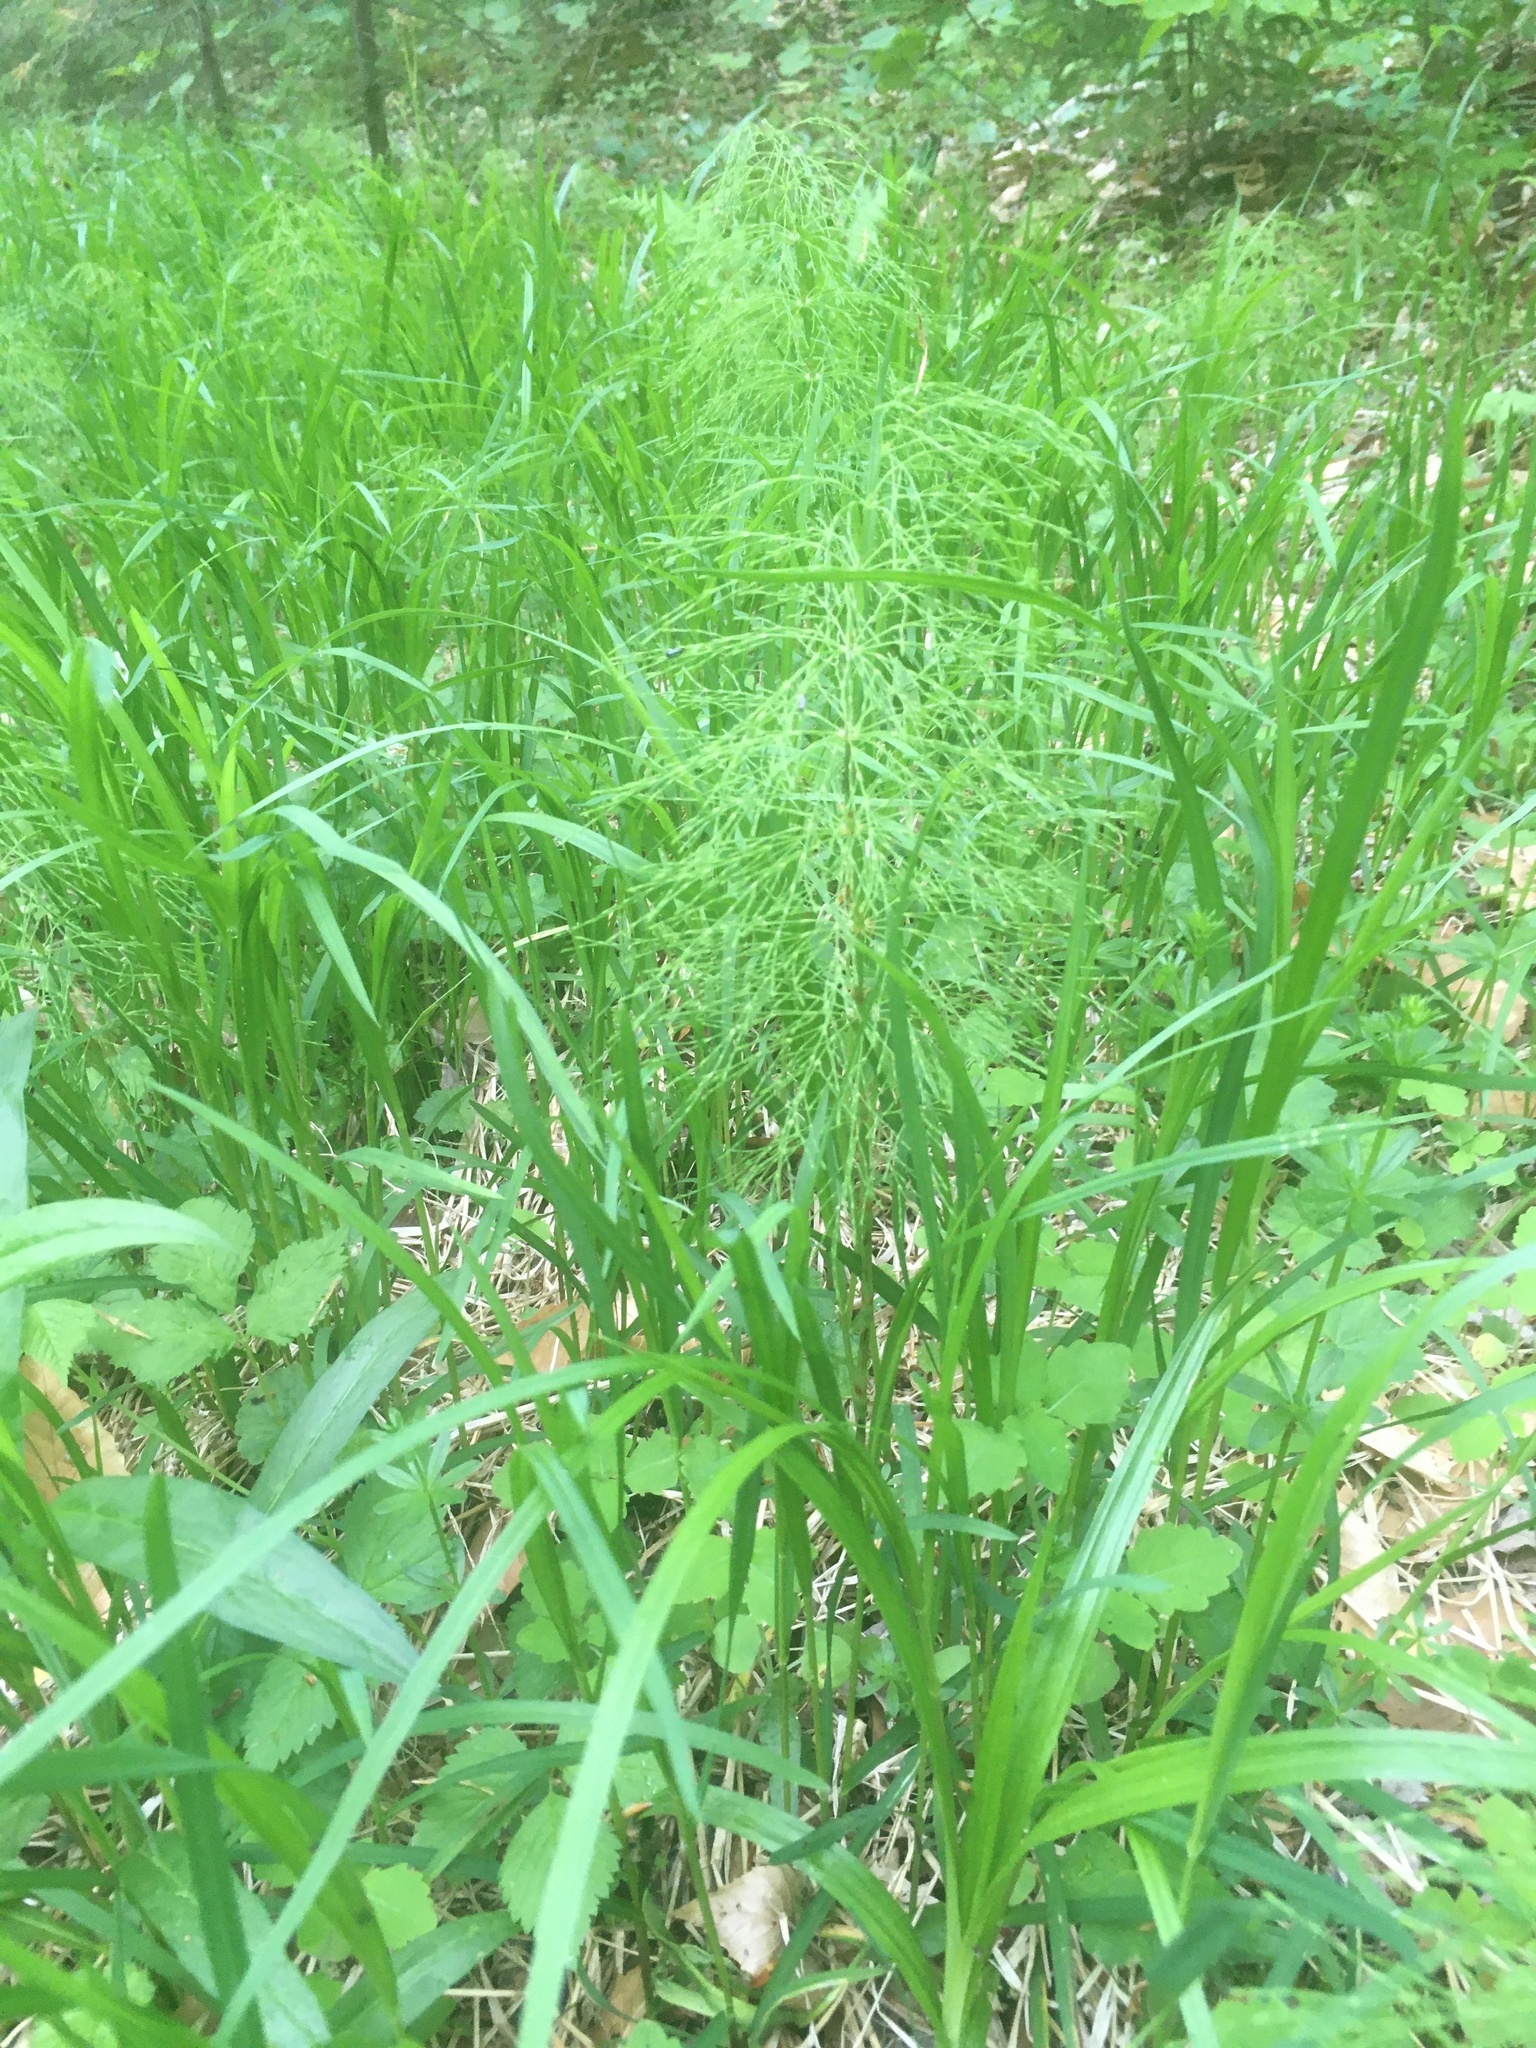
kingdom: Plantae
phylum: Tracheophyta
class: Polypodiopsida
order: Equisetales
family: Equisetaceae
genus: Equisetum
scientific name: Equisetum sylvaticum
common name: Wood horsetail
